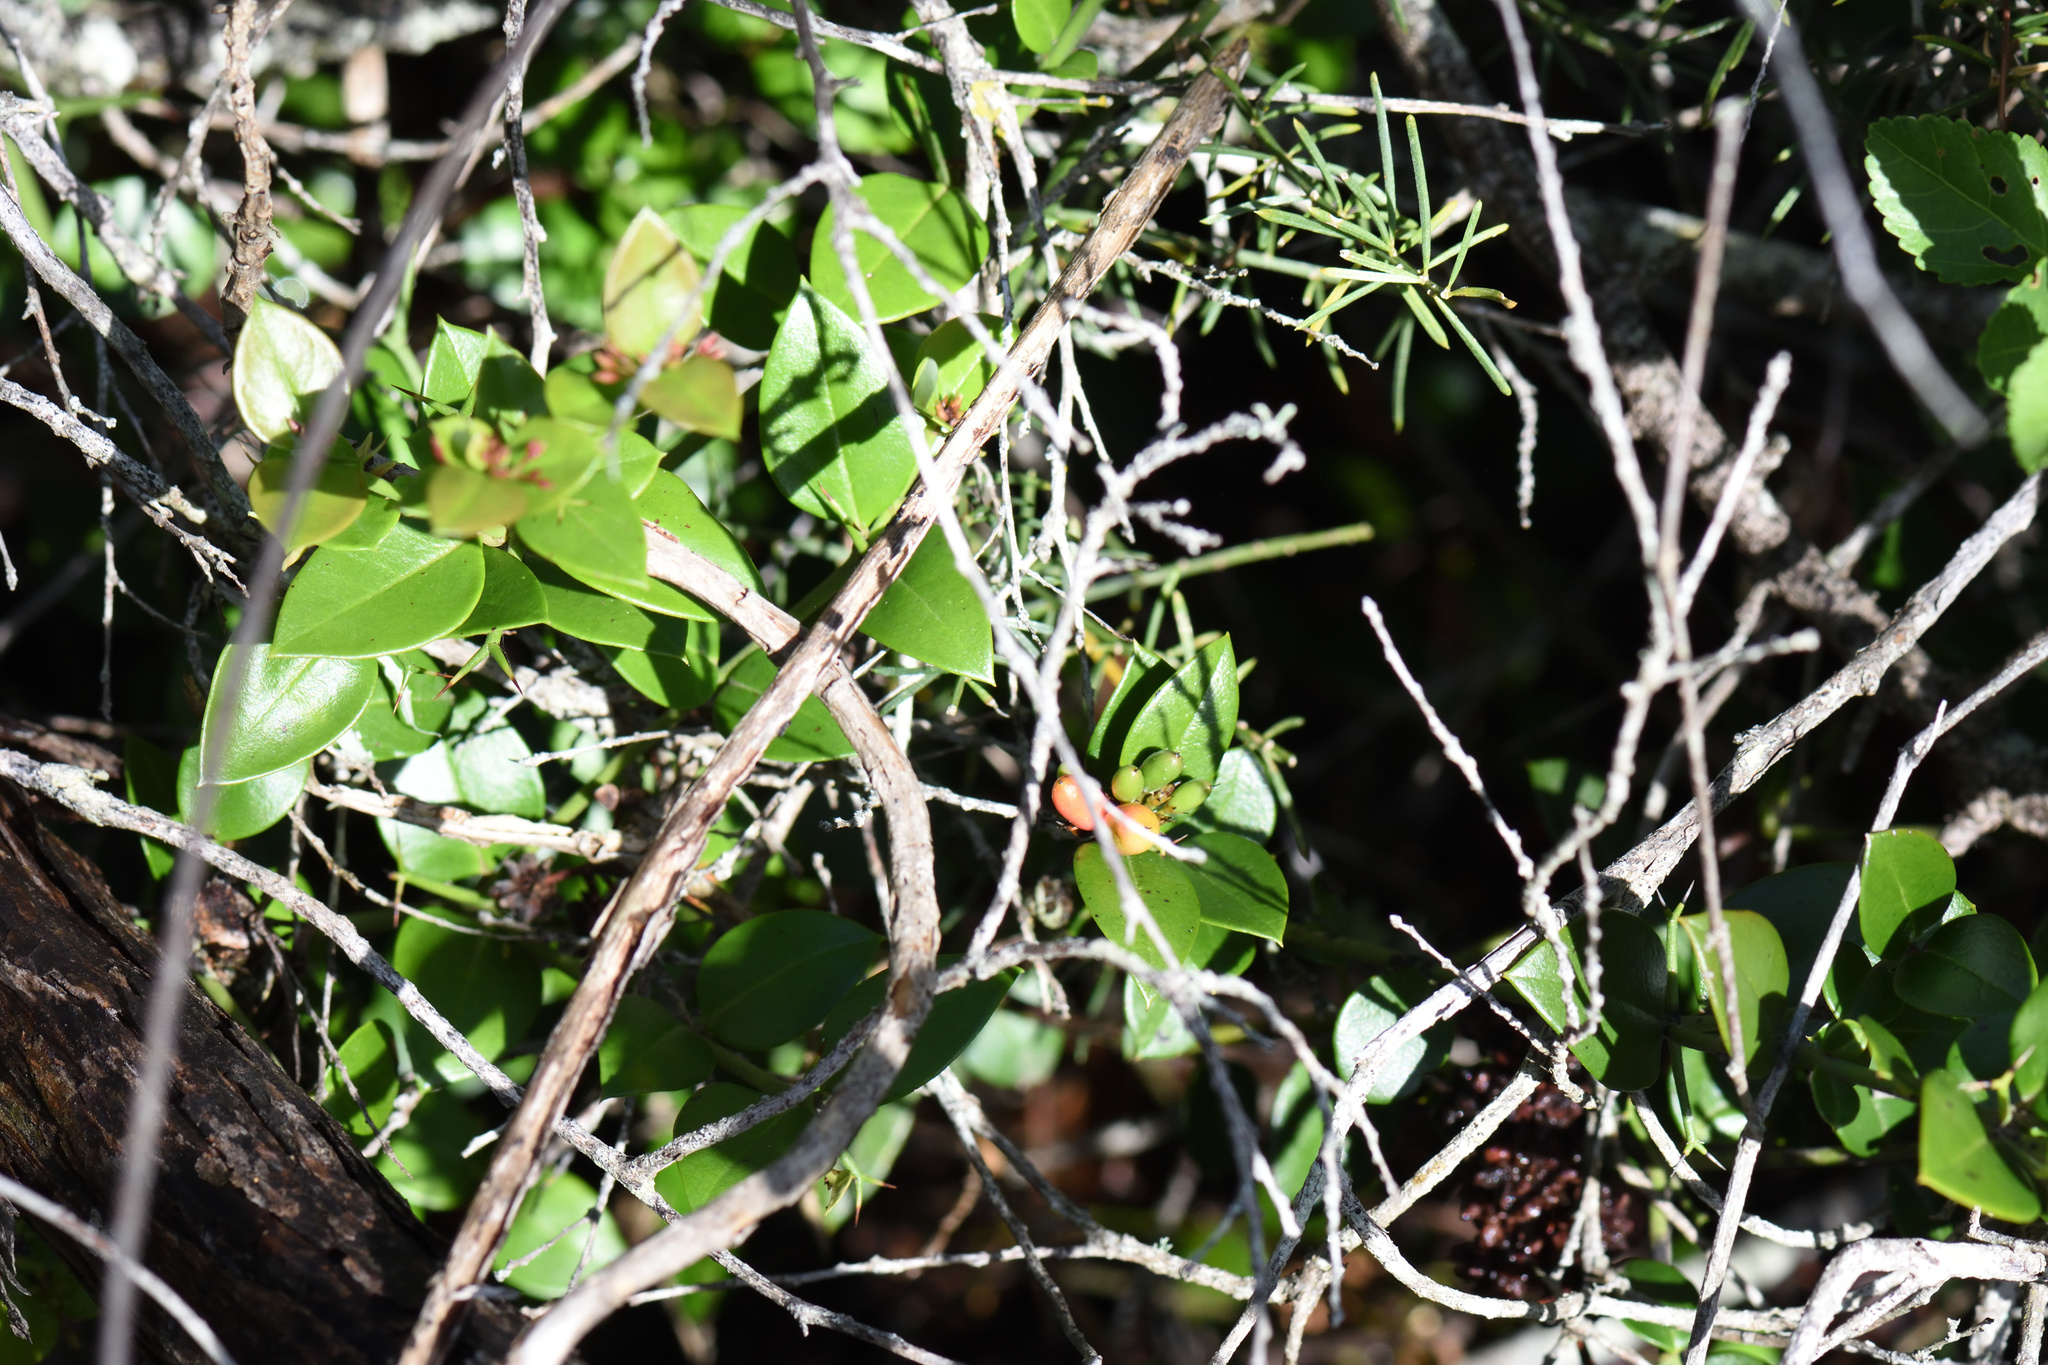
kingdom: Plantae
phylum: Tracheophyta
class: Magnoliopsida
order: Gentianales
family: Apocynaceae
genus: Carissa
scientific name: Carissa bispinosa
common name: Forest num-num
